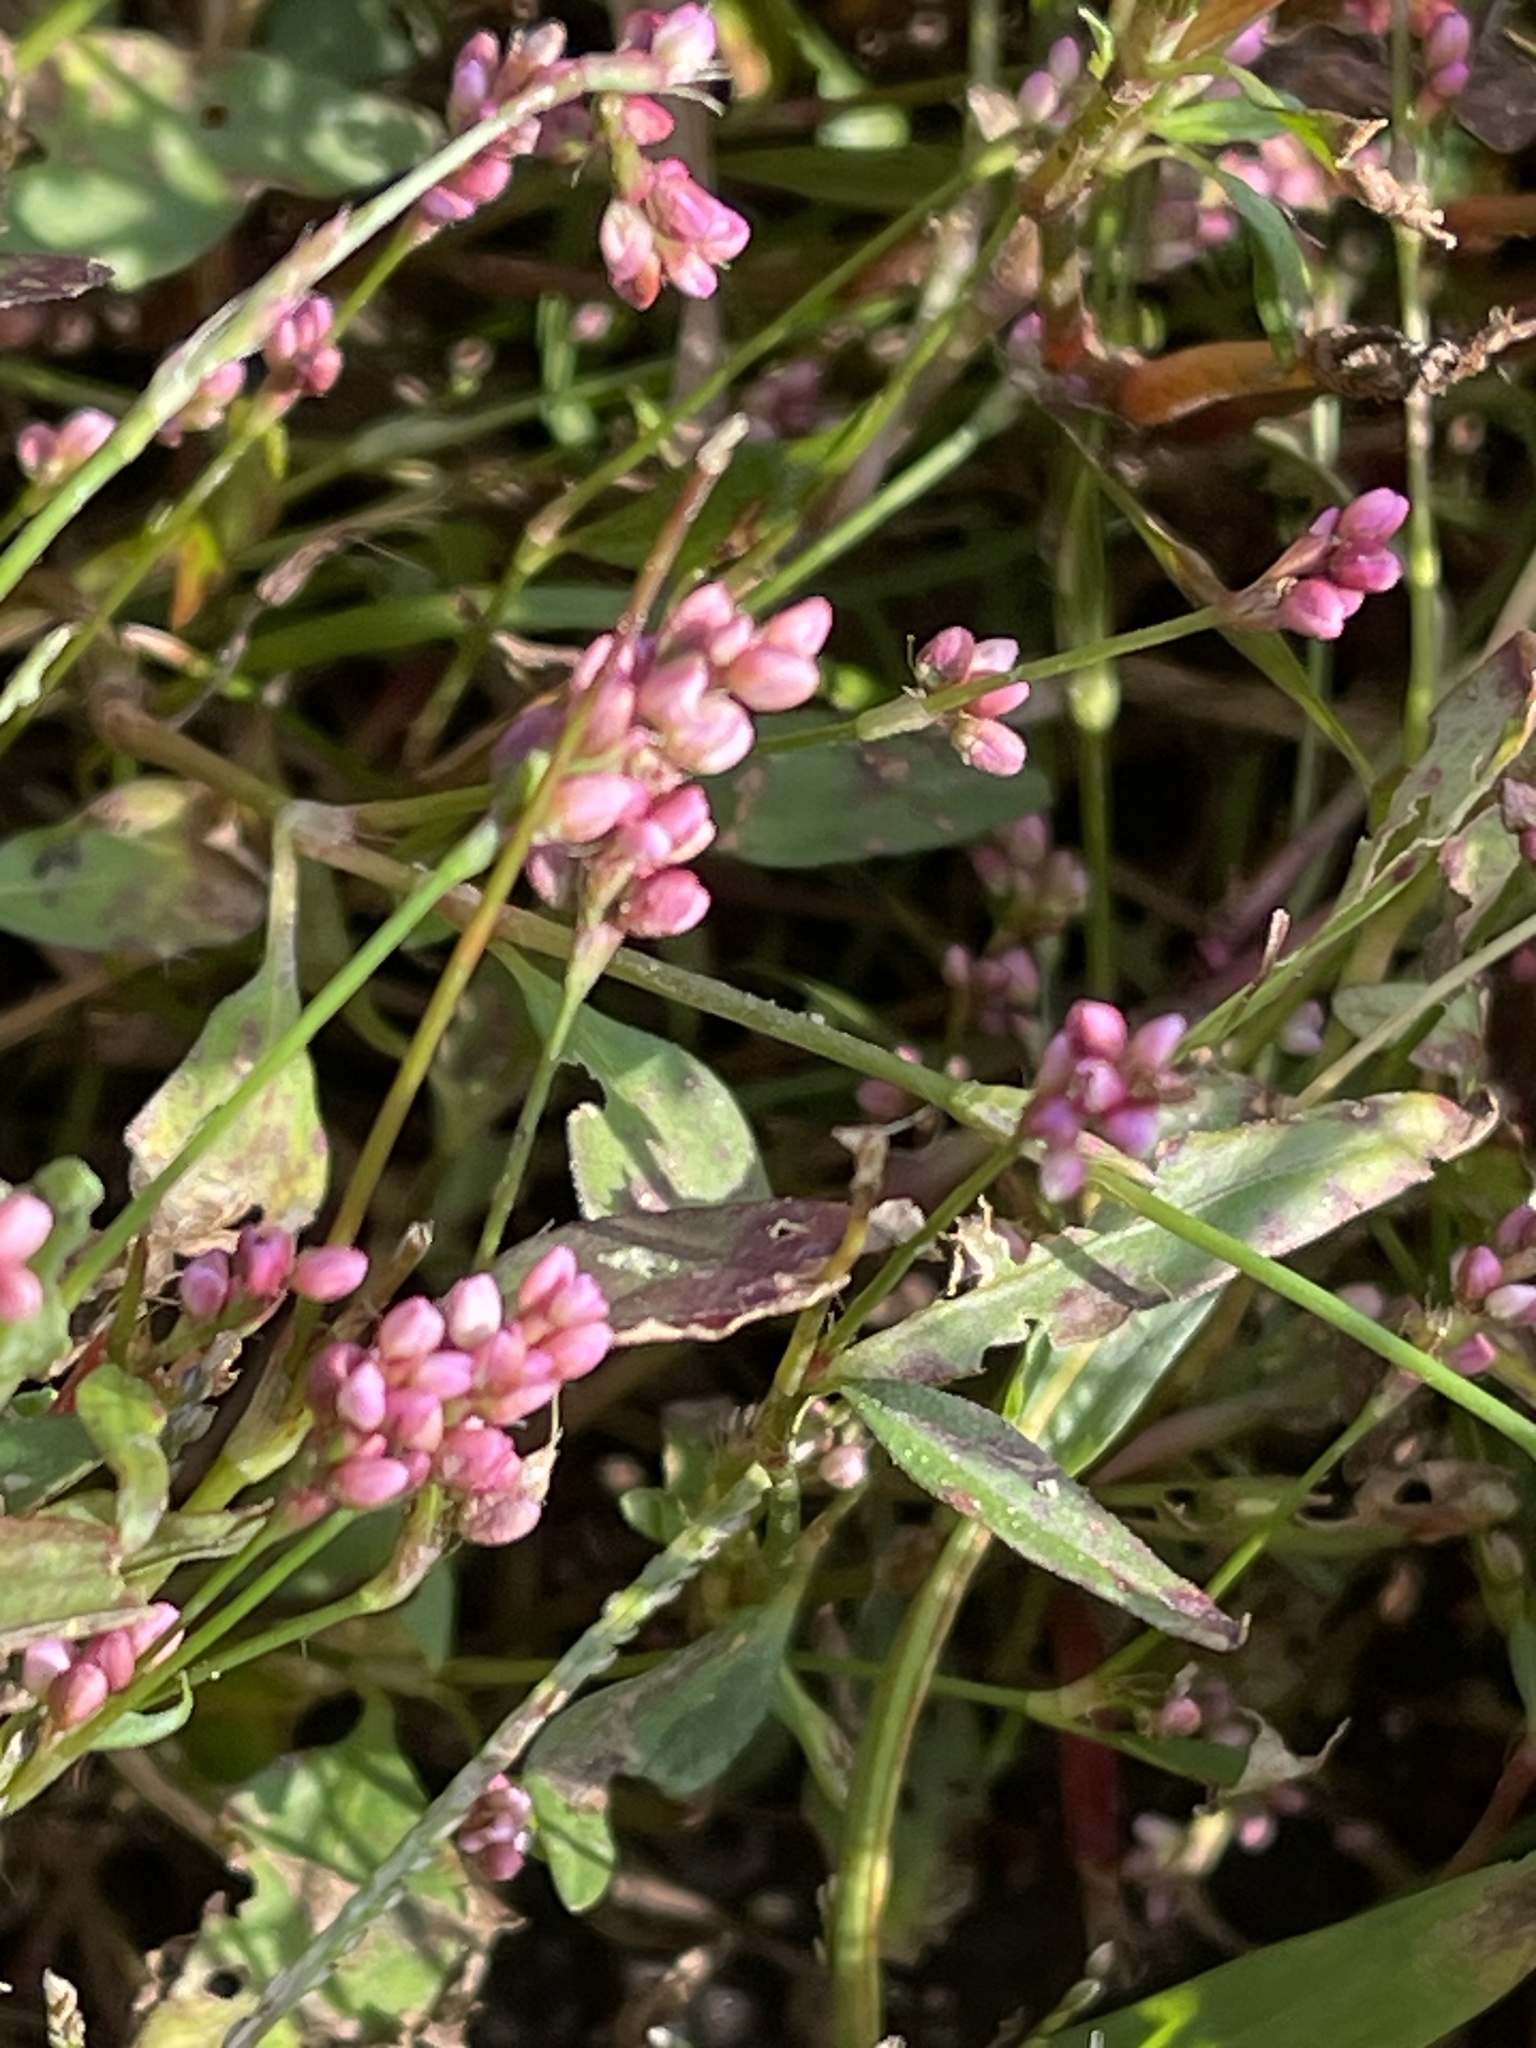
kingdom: Plantae
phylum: Tracheophyta
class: Magnoliopsida
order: Caryophyllales
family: Polygonaceae
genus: Persicaria
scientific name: Persicaria longiseta
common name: Bristly lady's-thumb
